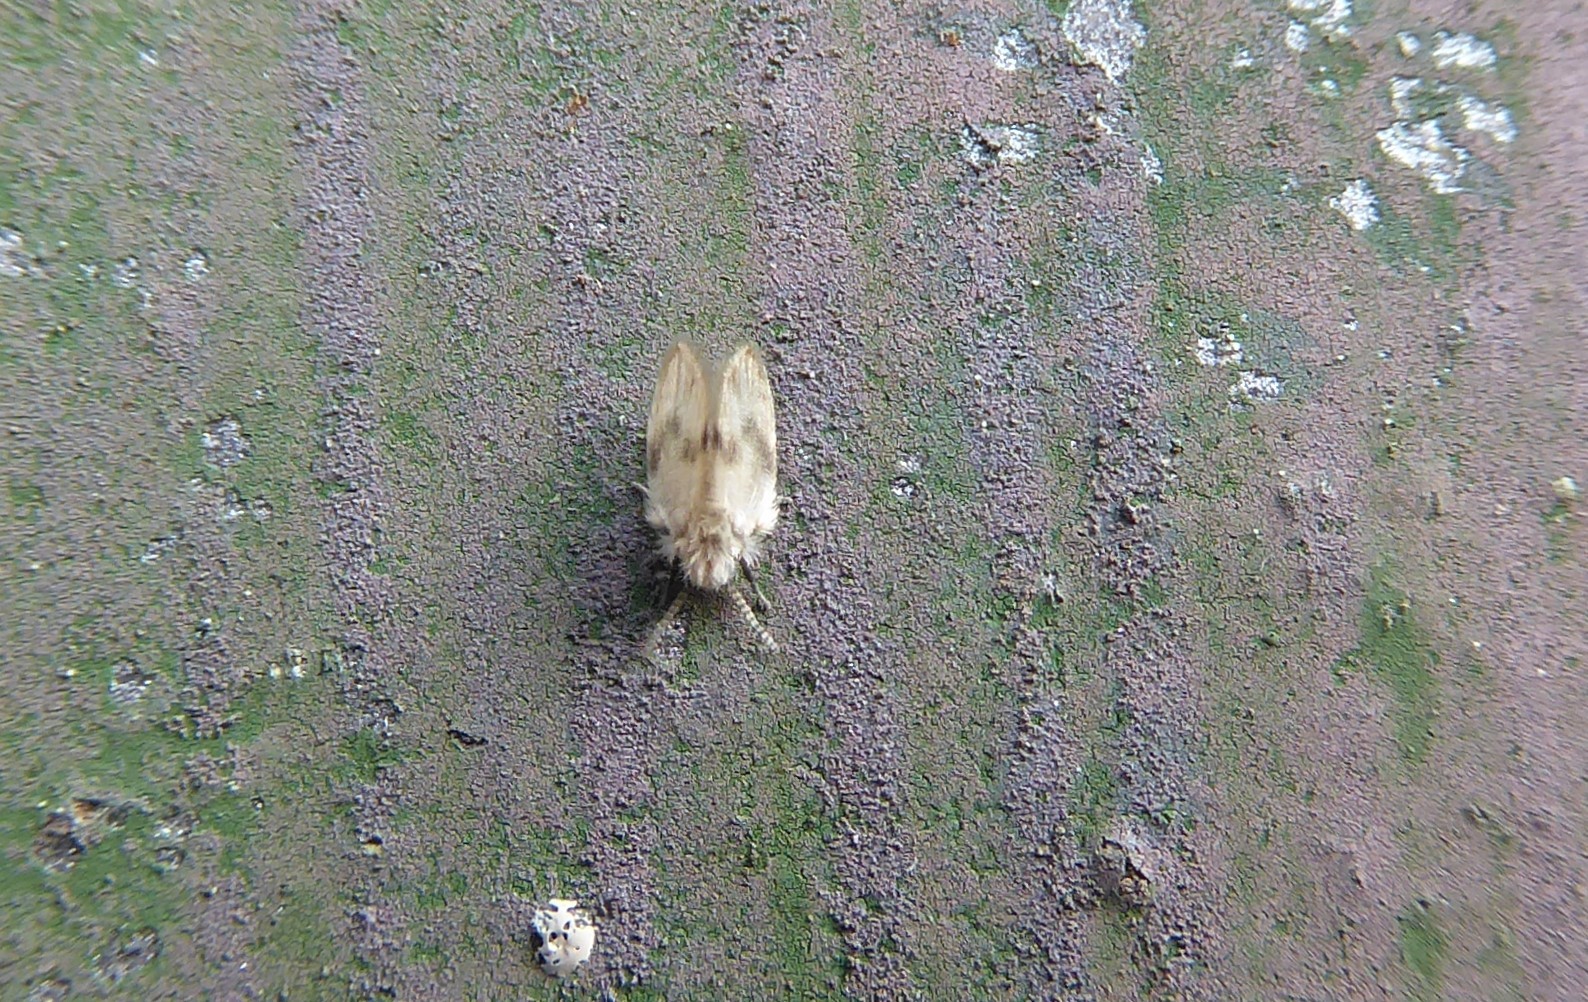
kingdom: Animalia
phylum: Arthropoda
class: Insecta
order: Diptera
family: Psychodidae
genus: Psychoda
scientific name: Psychoda sigma
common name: Moth fly
